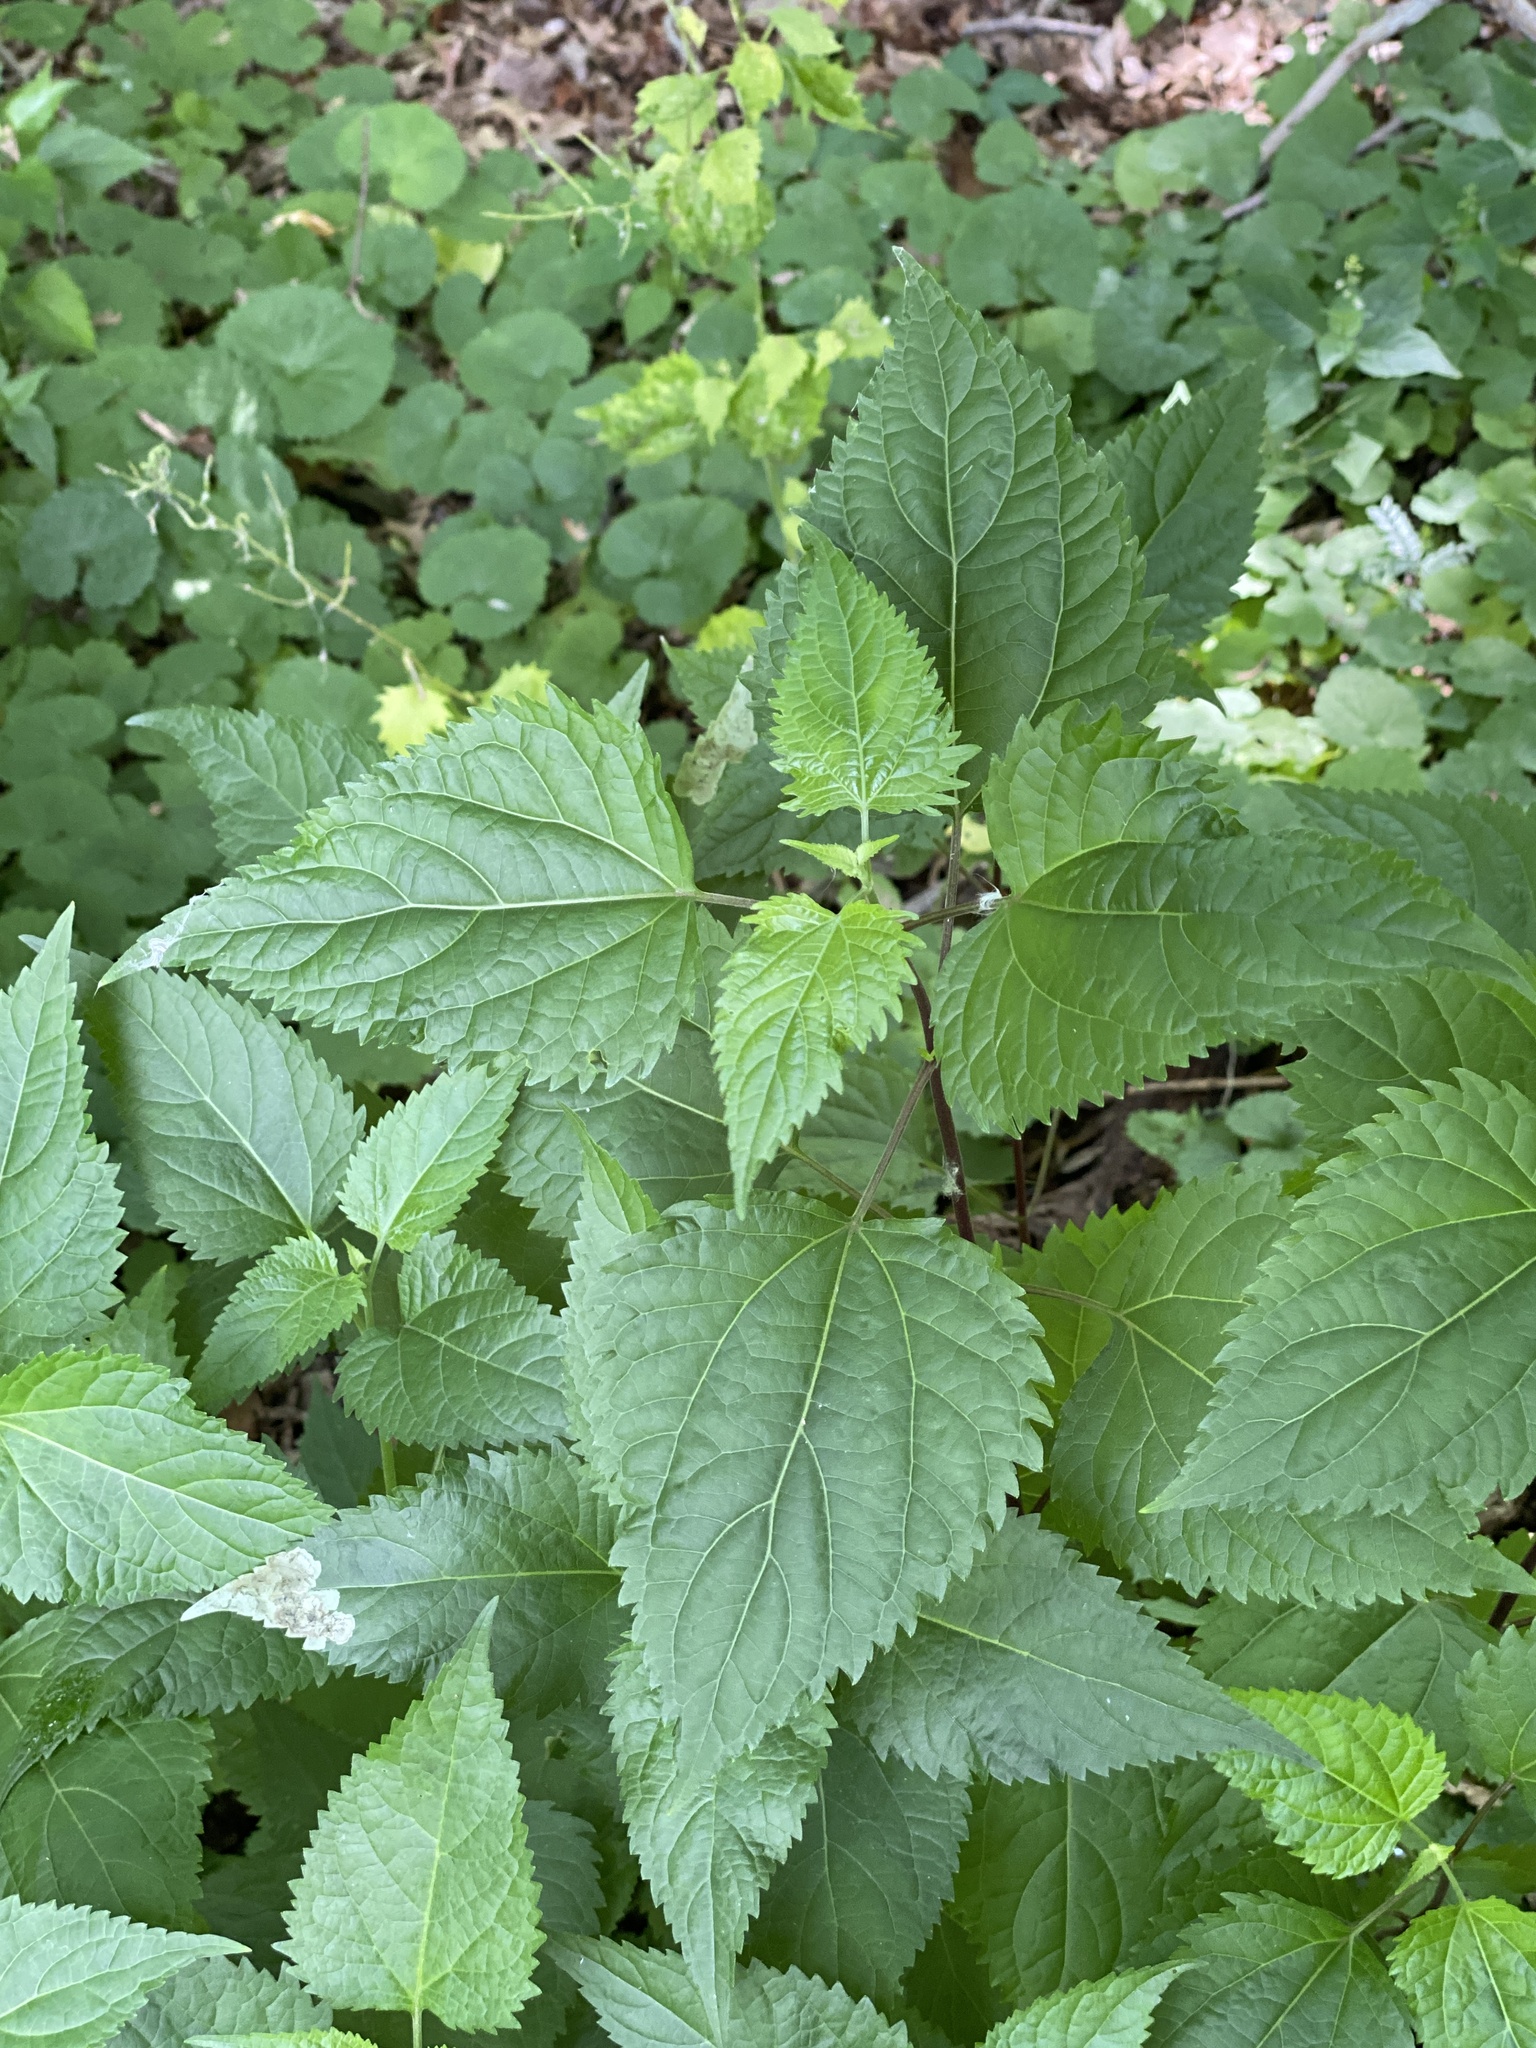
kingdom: Plantae
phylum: Tracheophyta
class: Magnoliopsida
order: Asterales
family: Asteraceae
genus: Ageratina
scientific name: Ageratina altissima
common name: White snakeroot
